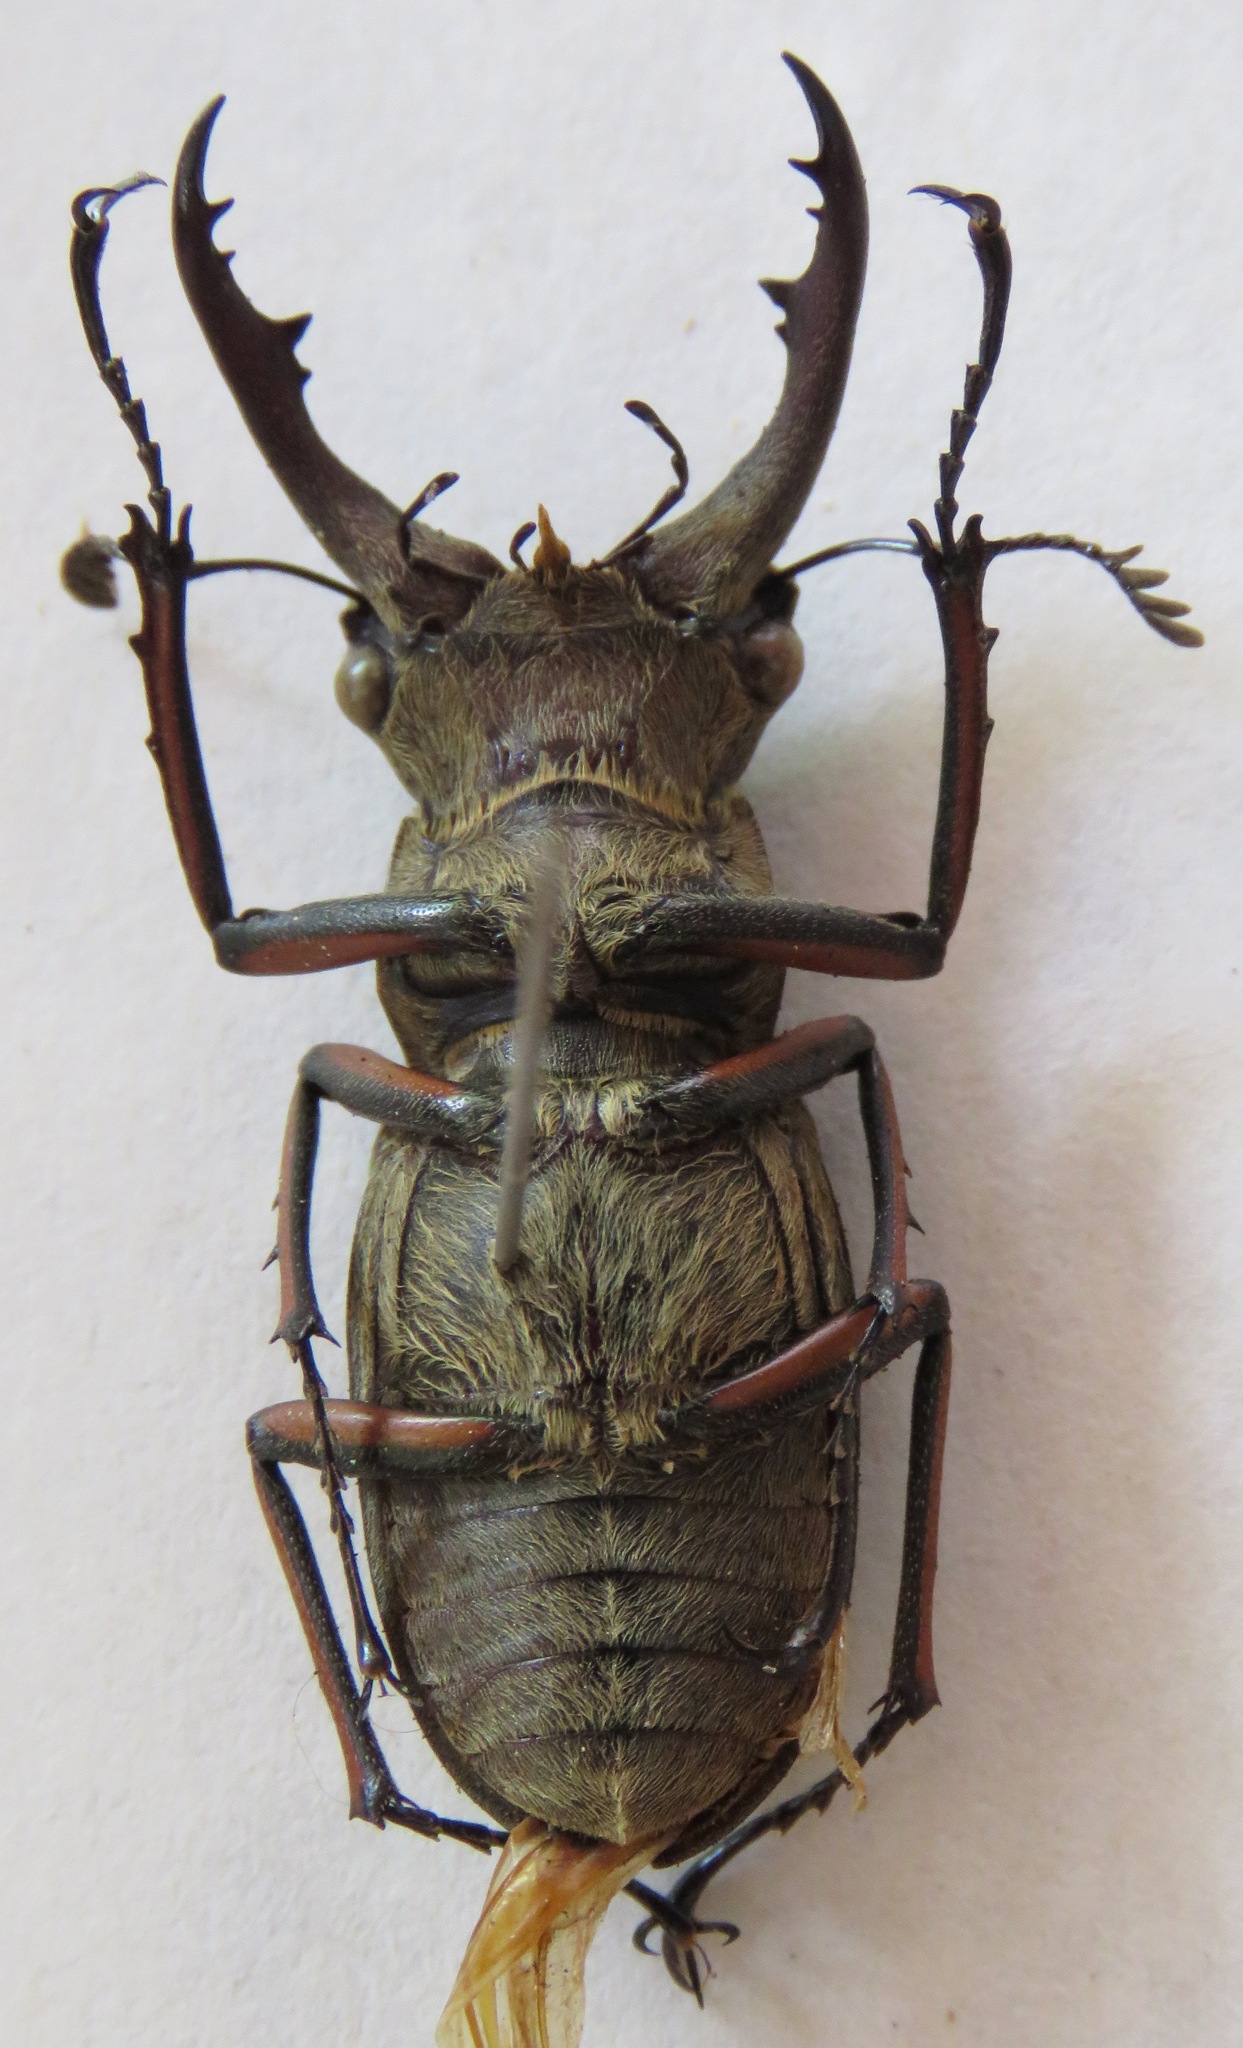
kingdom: Animalia
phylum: Arthropoda
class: Insecta
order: Coleoptera
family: Lucanidae
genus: Lucanus
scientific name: Lucanus tsukamotoi
